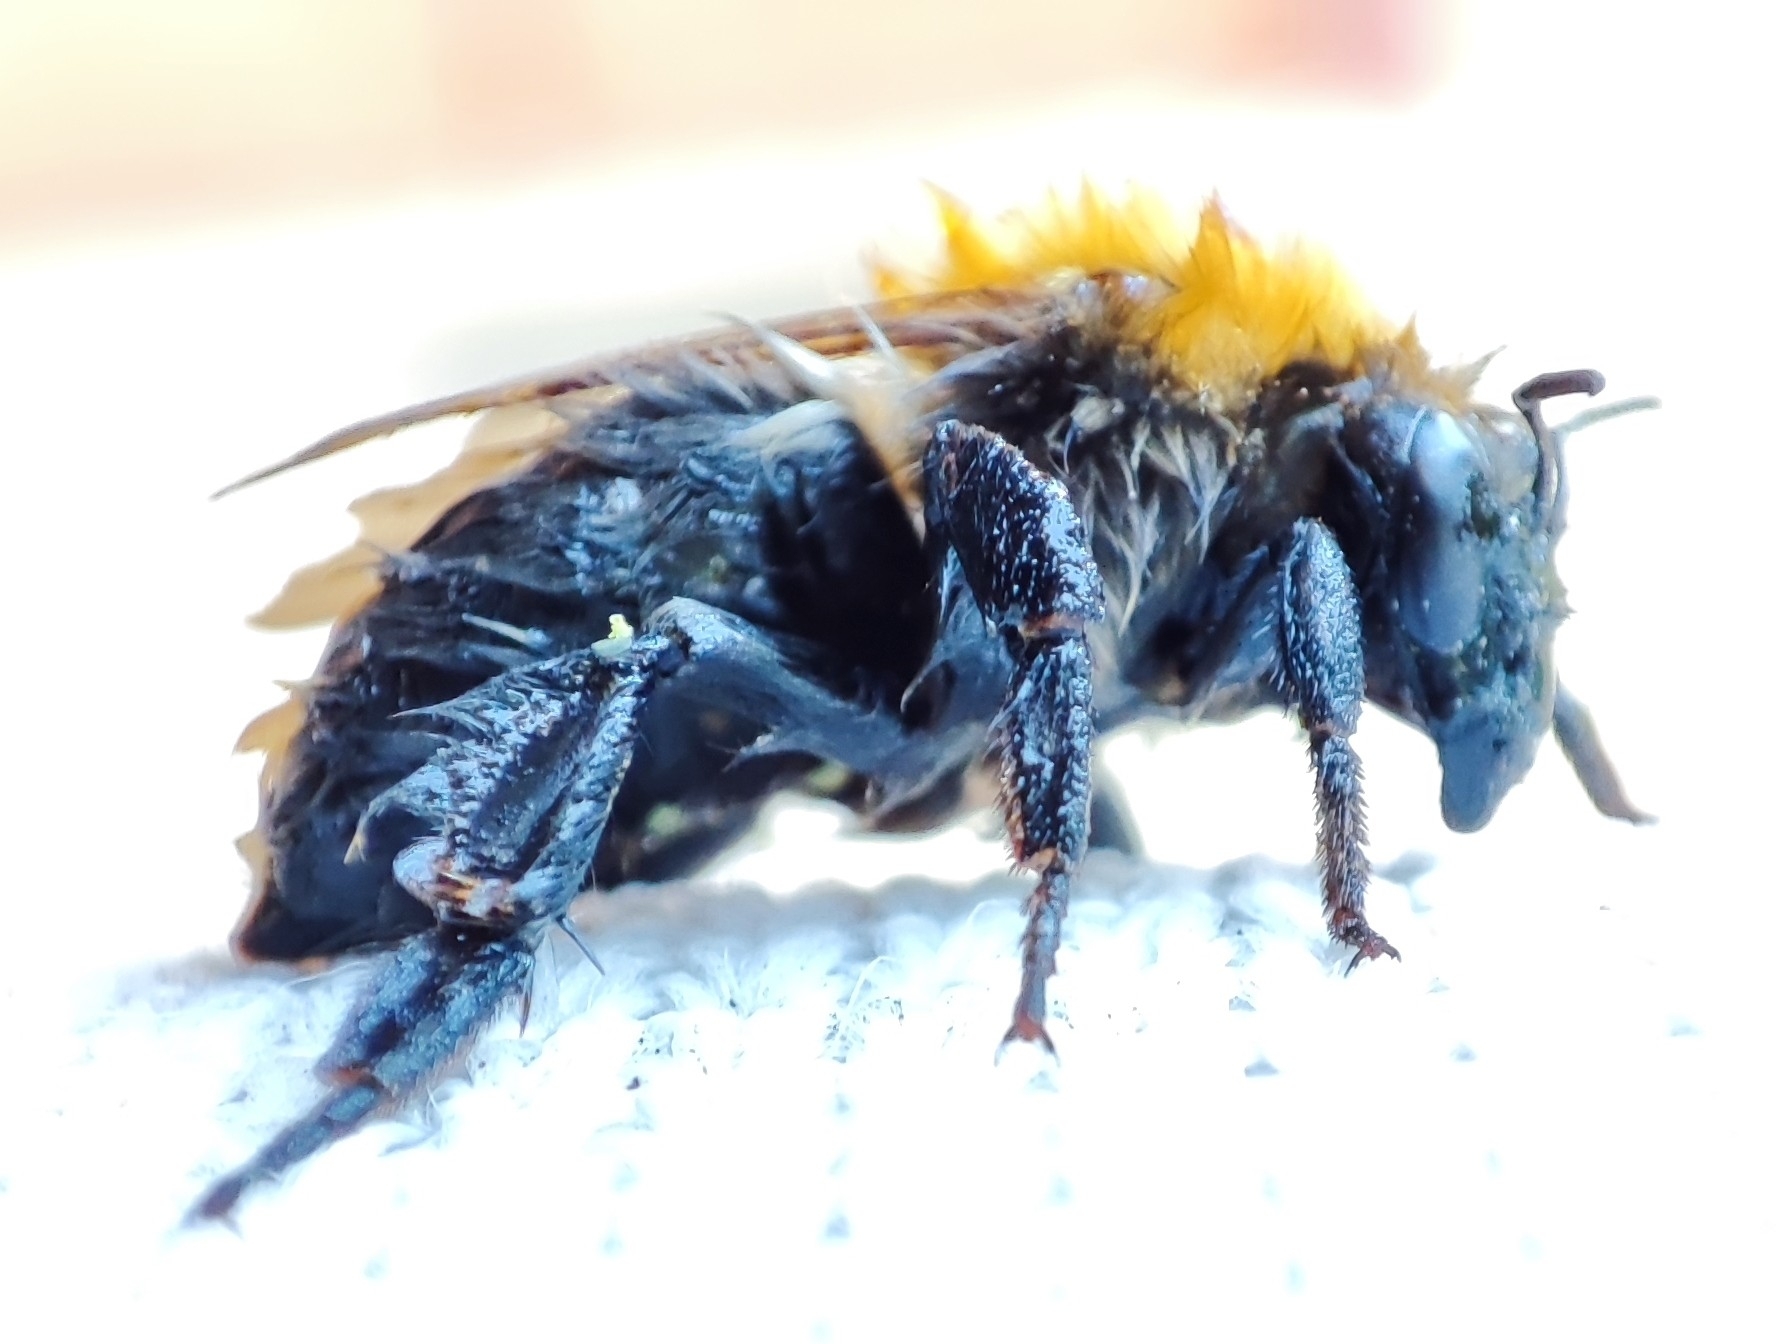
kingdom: Animalia
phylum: Arthropoda
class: Insecta
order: Hymenoptera
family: Apidae
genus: Bombus
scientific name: Bombus pascuorum
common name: Common carder bee
